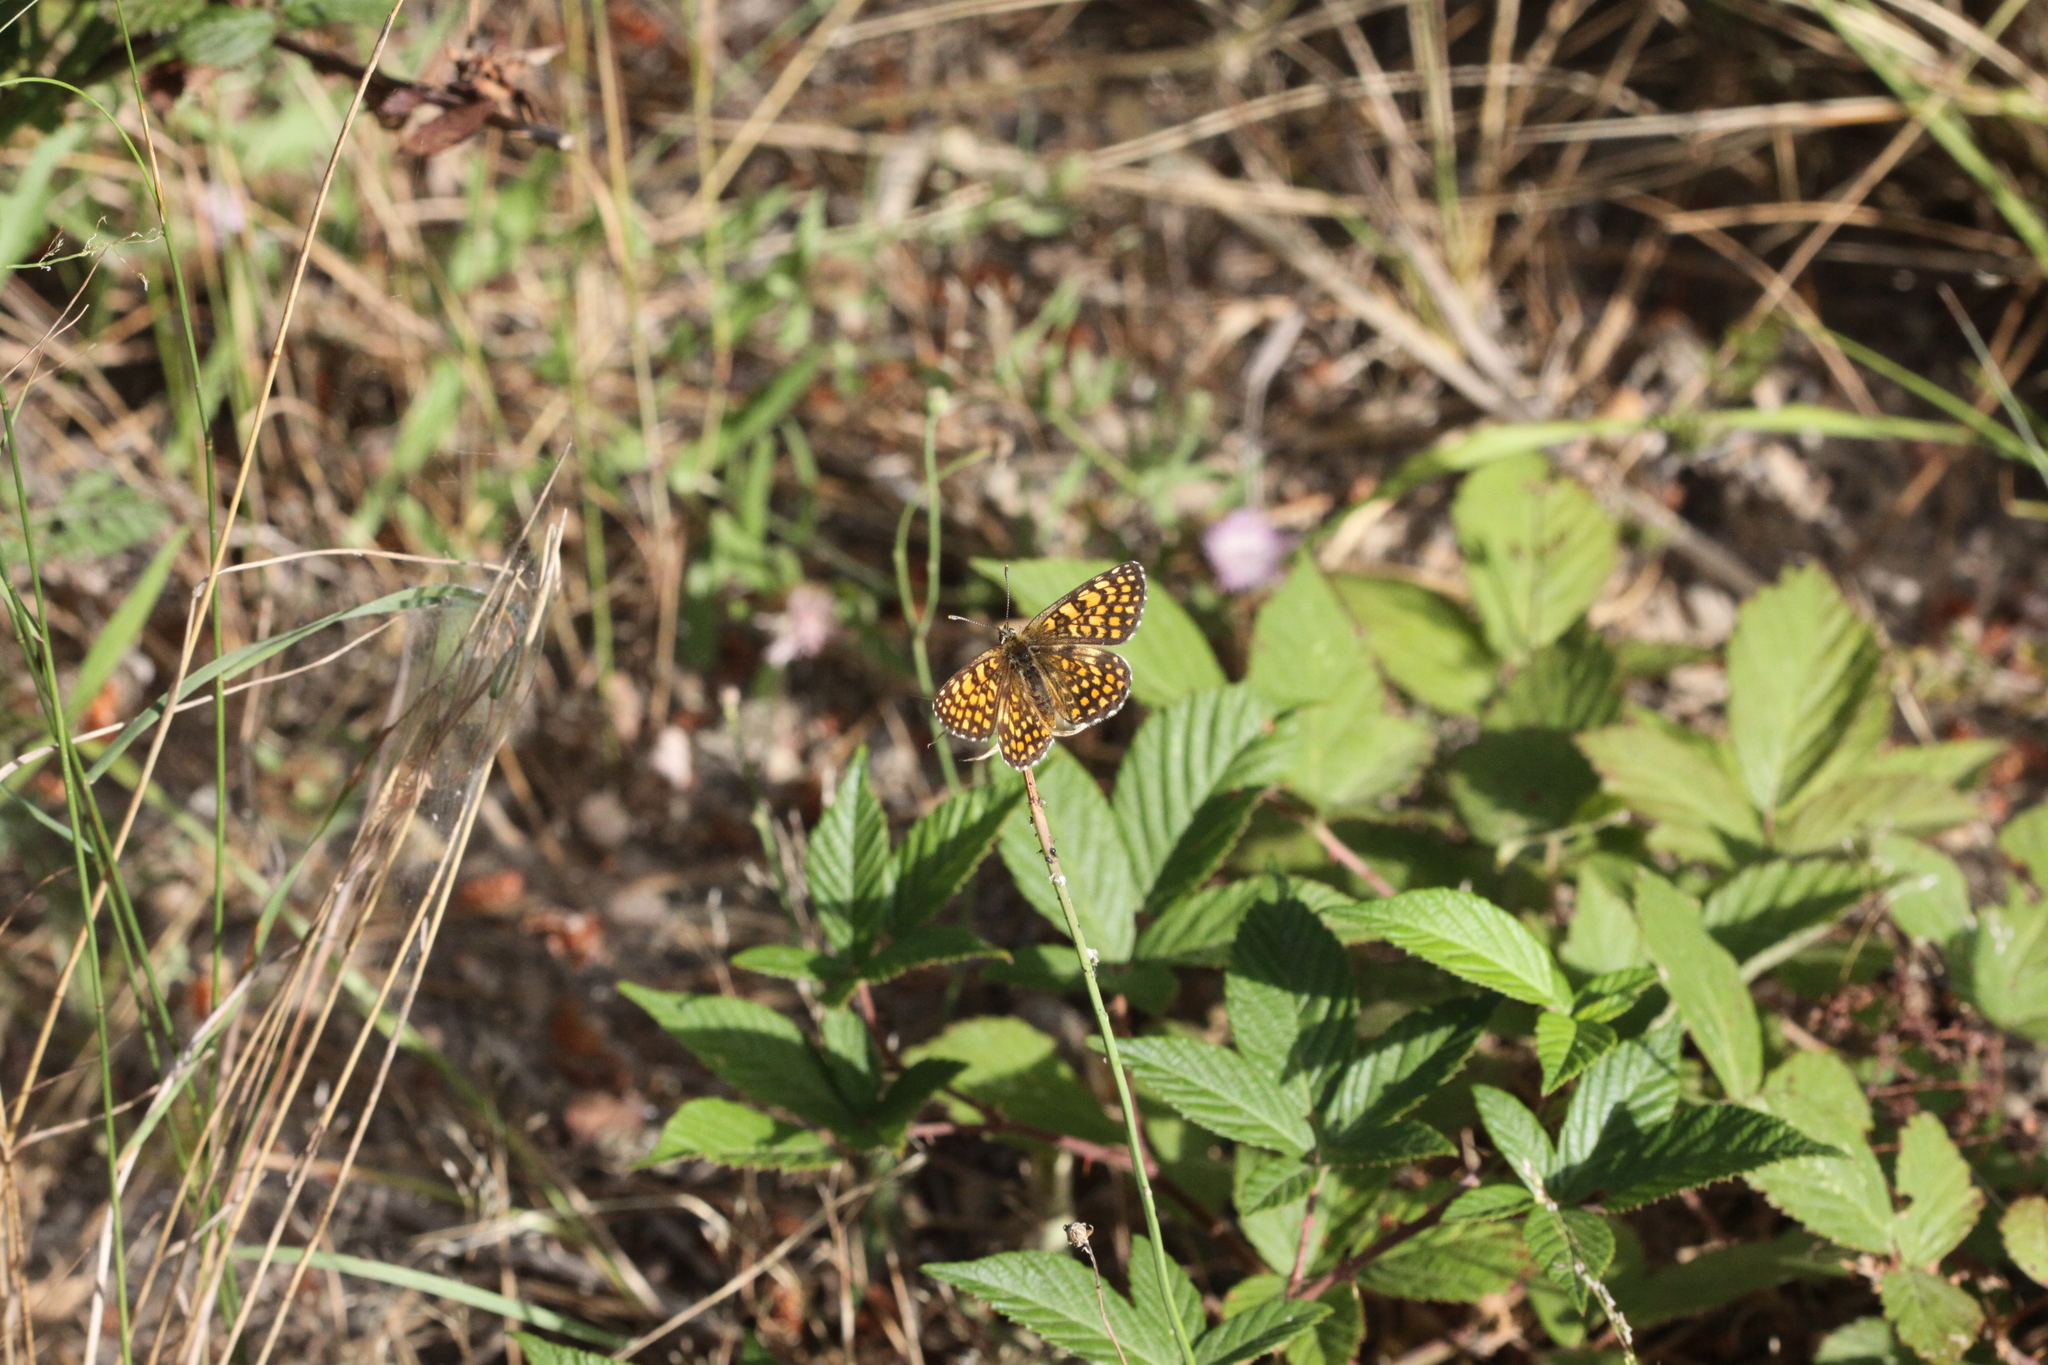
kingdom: Animalia
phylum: Arthropoda
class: Insecta
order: Lepidoptera
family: Nymphalidae
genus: Mellicta
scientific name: Mellicta athalia
